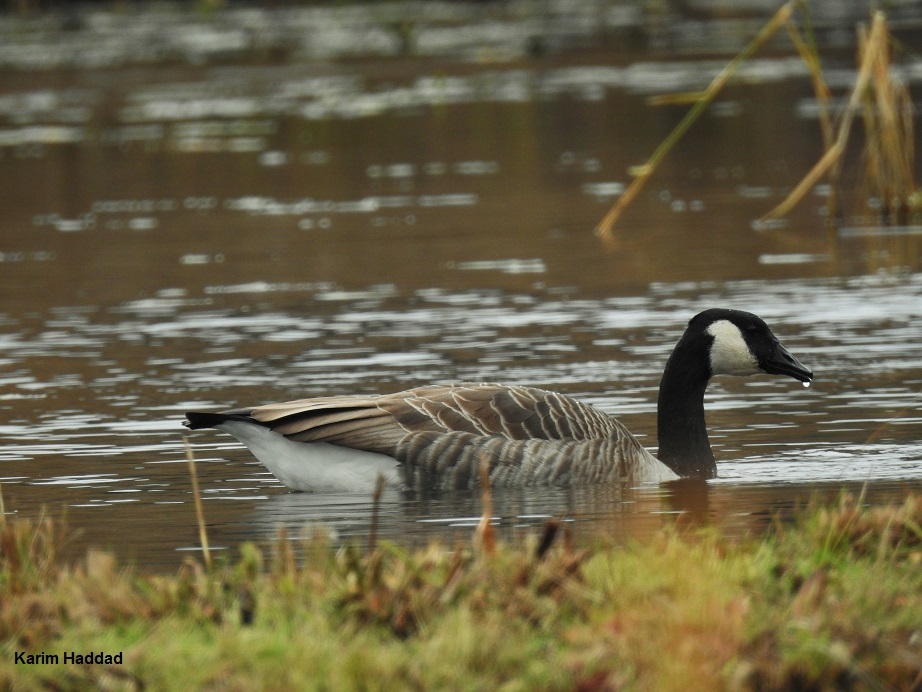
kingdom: Animalia
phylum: Chordata
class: Aves
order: Anseriformes
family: Anatidae
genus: Branta
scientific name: Branta canadensis
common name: Canada goose
